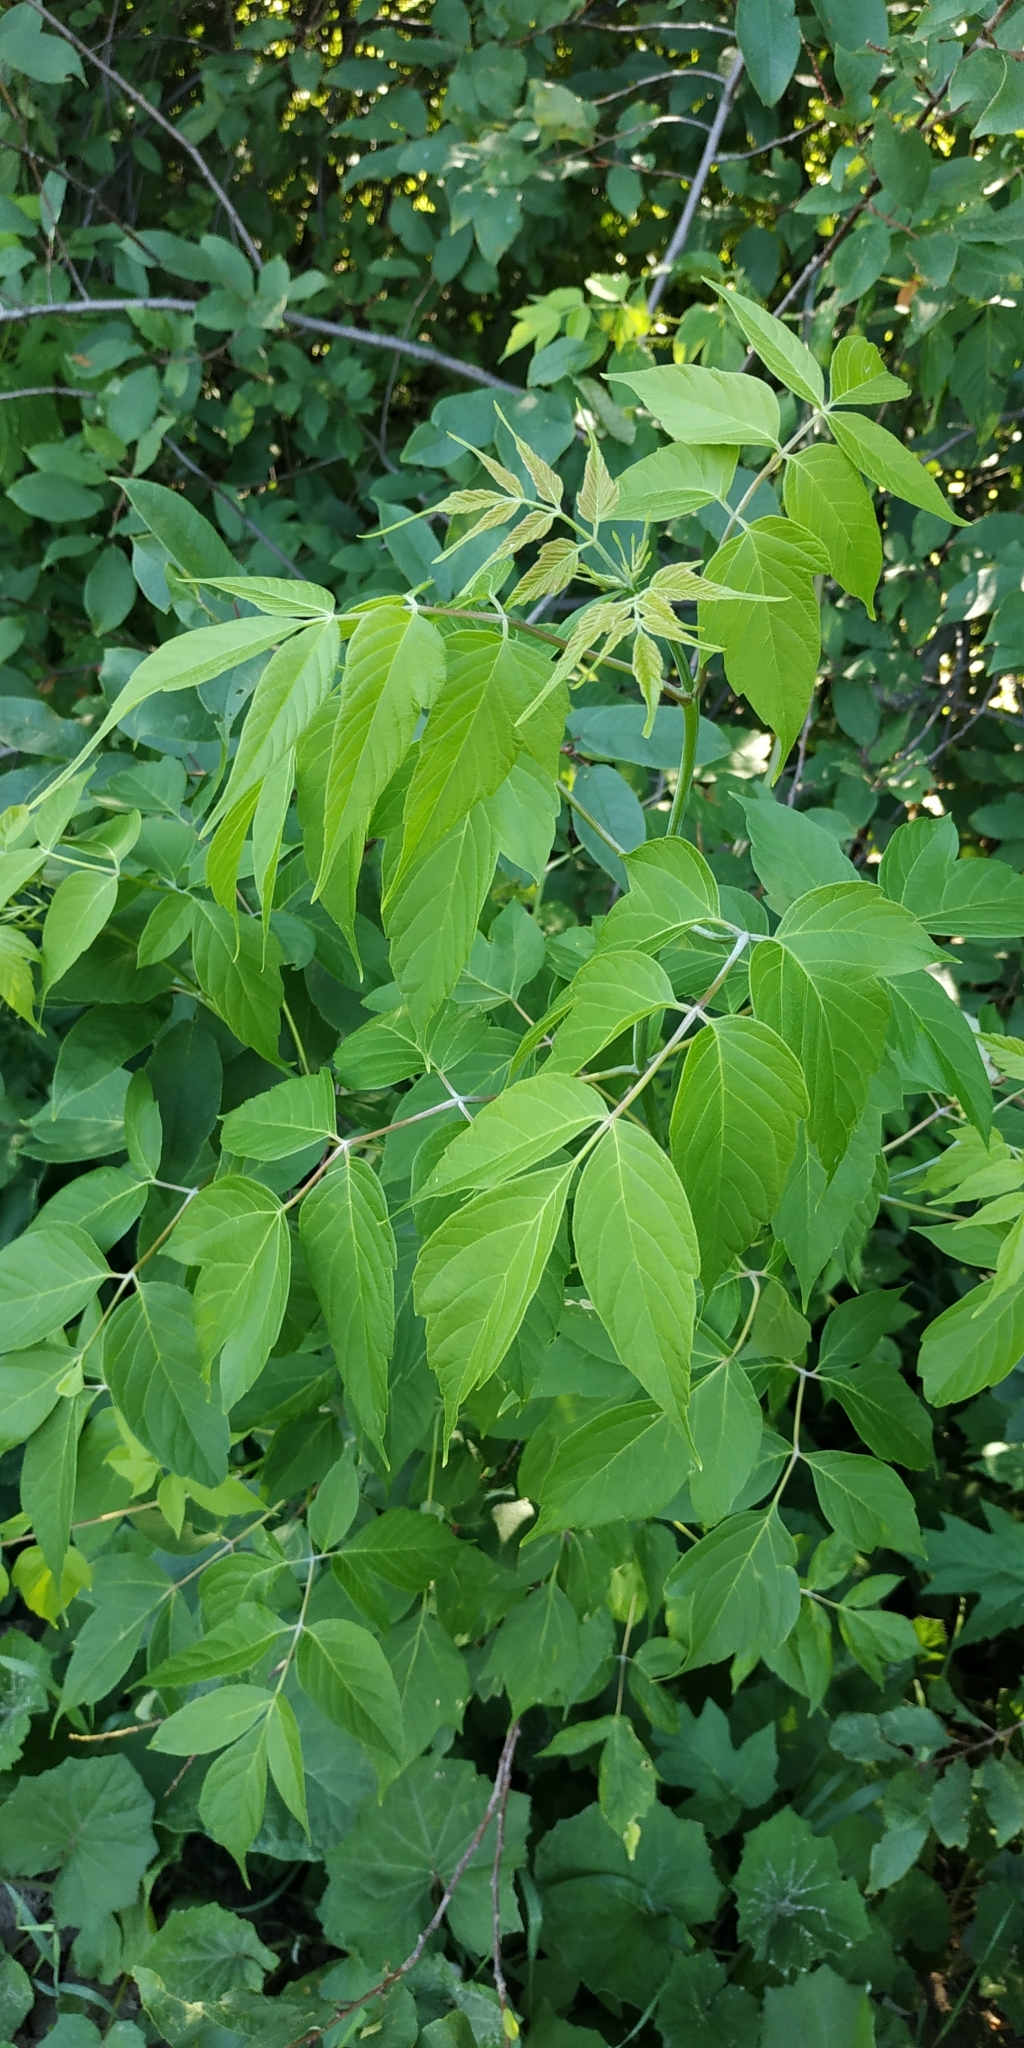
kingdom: Plantae
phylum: Tracheophyta
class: Magnoliopsida
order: Sapindales
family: Sapindaceae
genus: Acer
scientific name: Acer negundo
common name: Ashleaf maple
